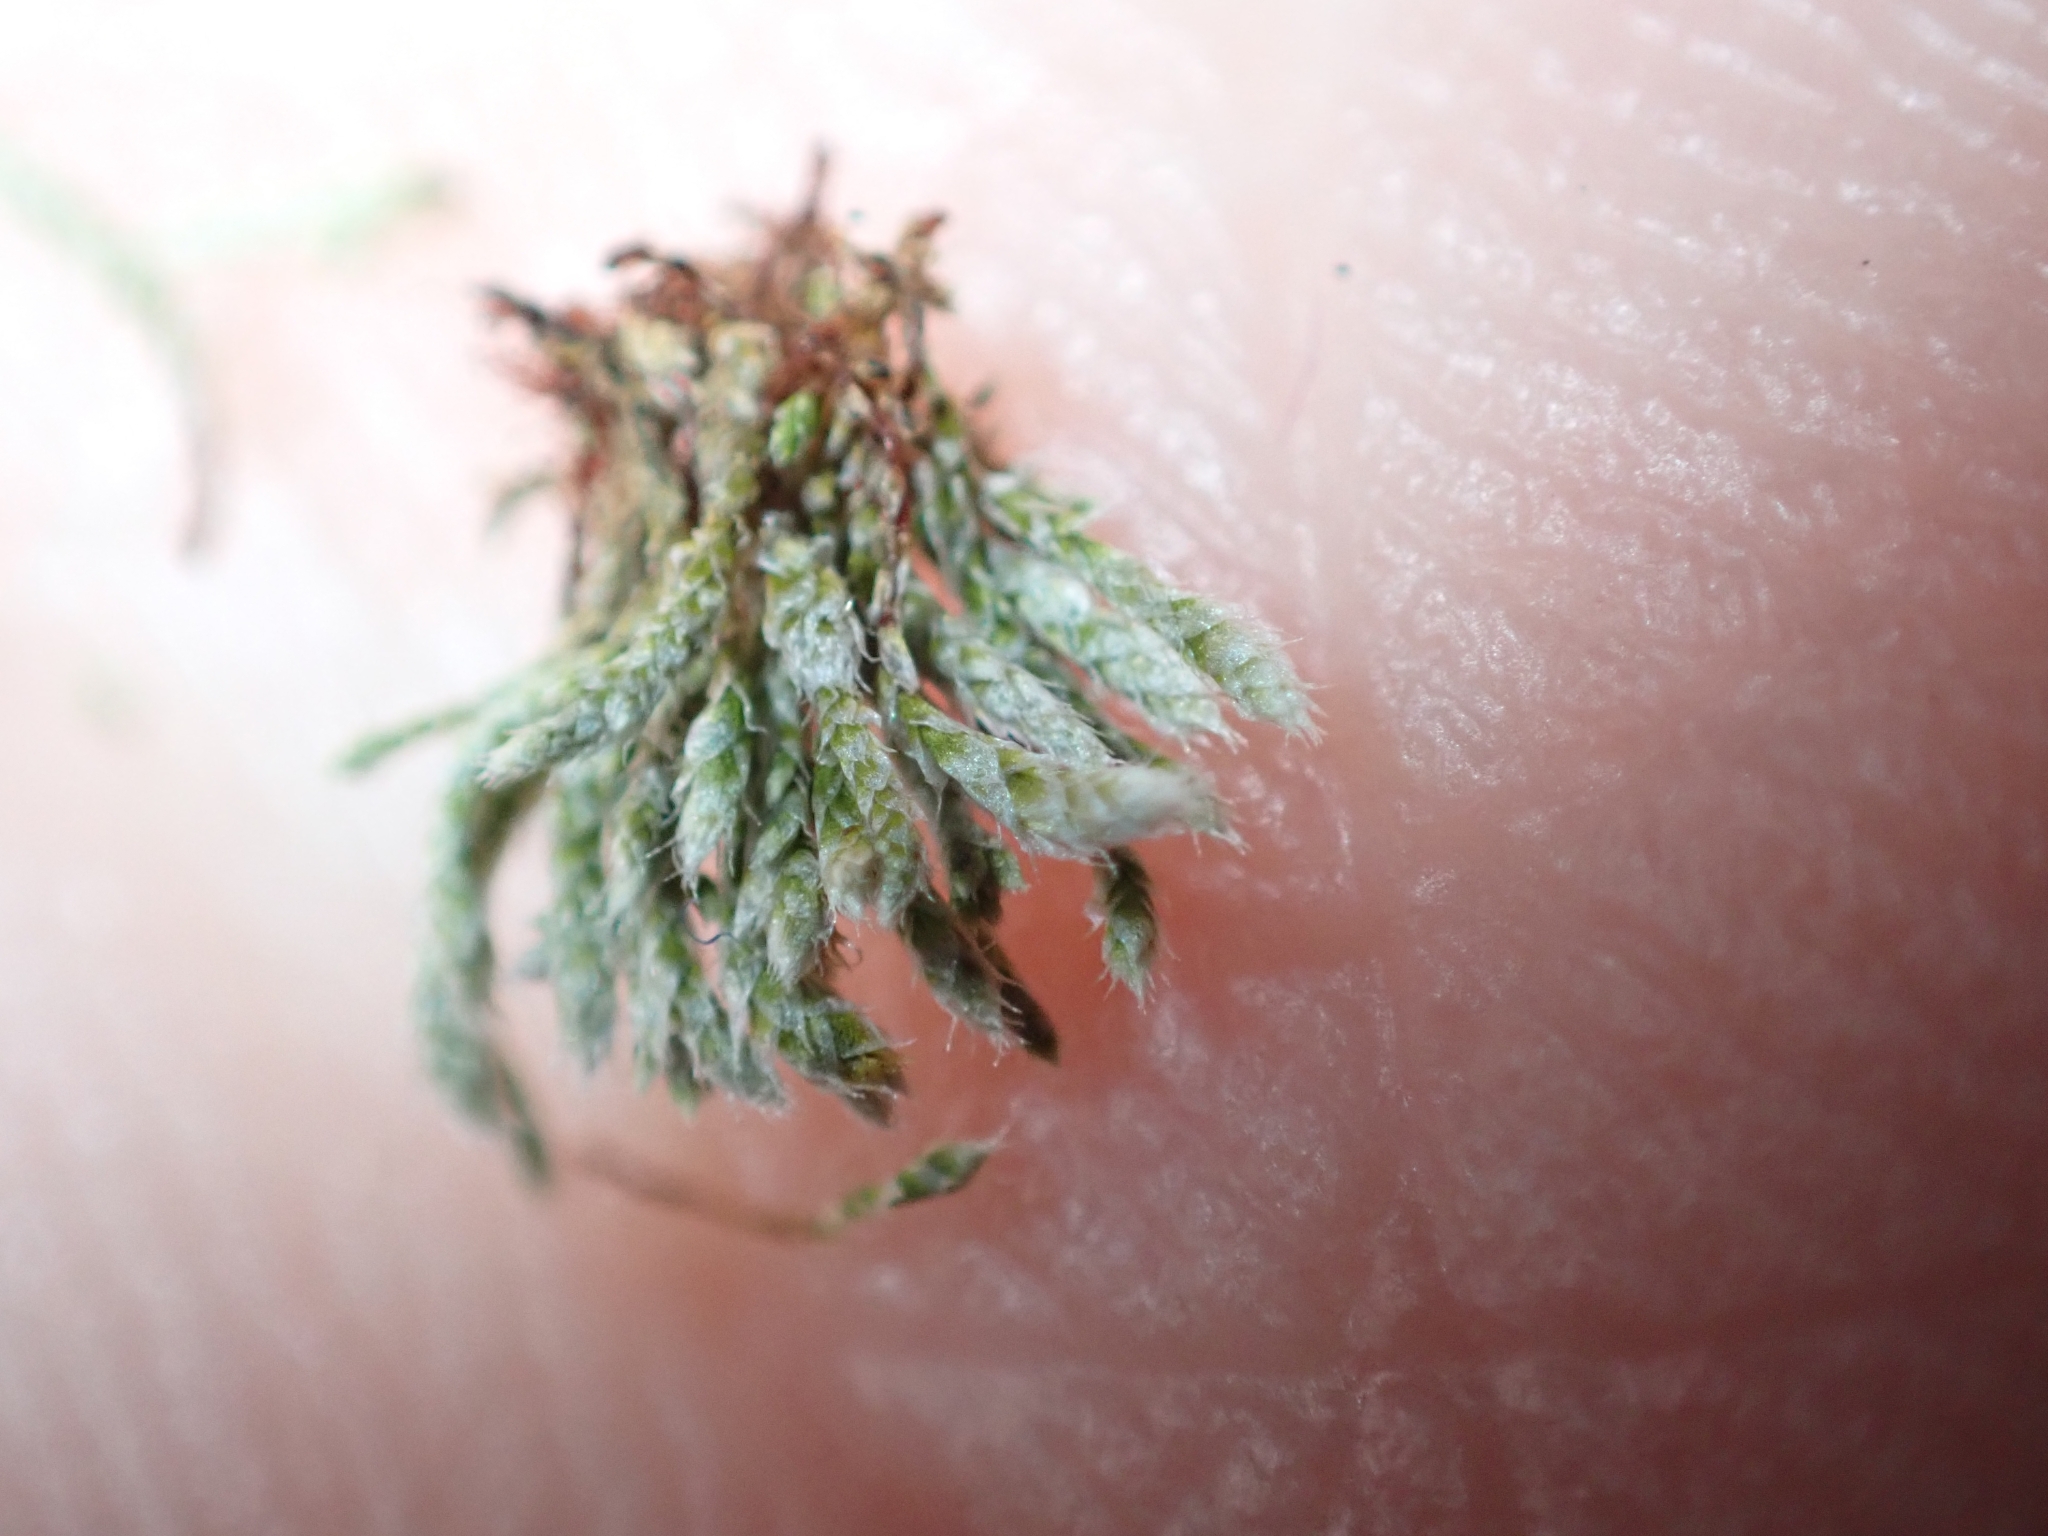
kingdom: Plantae
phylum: Bryophyta
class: Bryopsida
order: Bryales
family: Bryaceae
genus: Bryum
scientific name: Bryum argenteum
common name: Silver-moss
